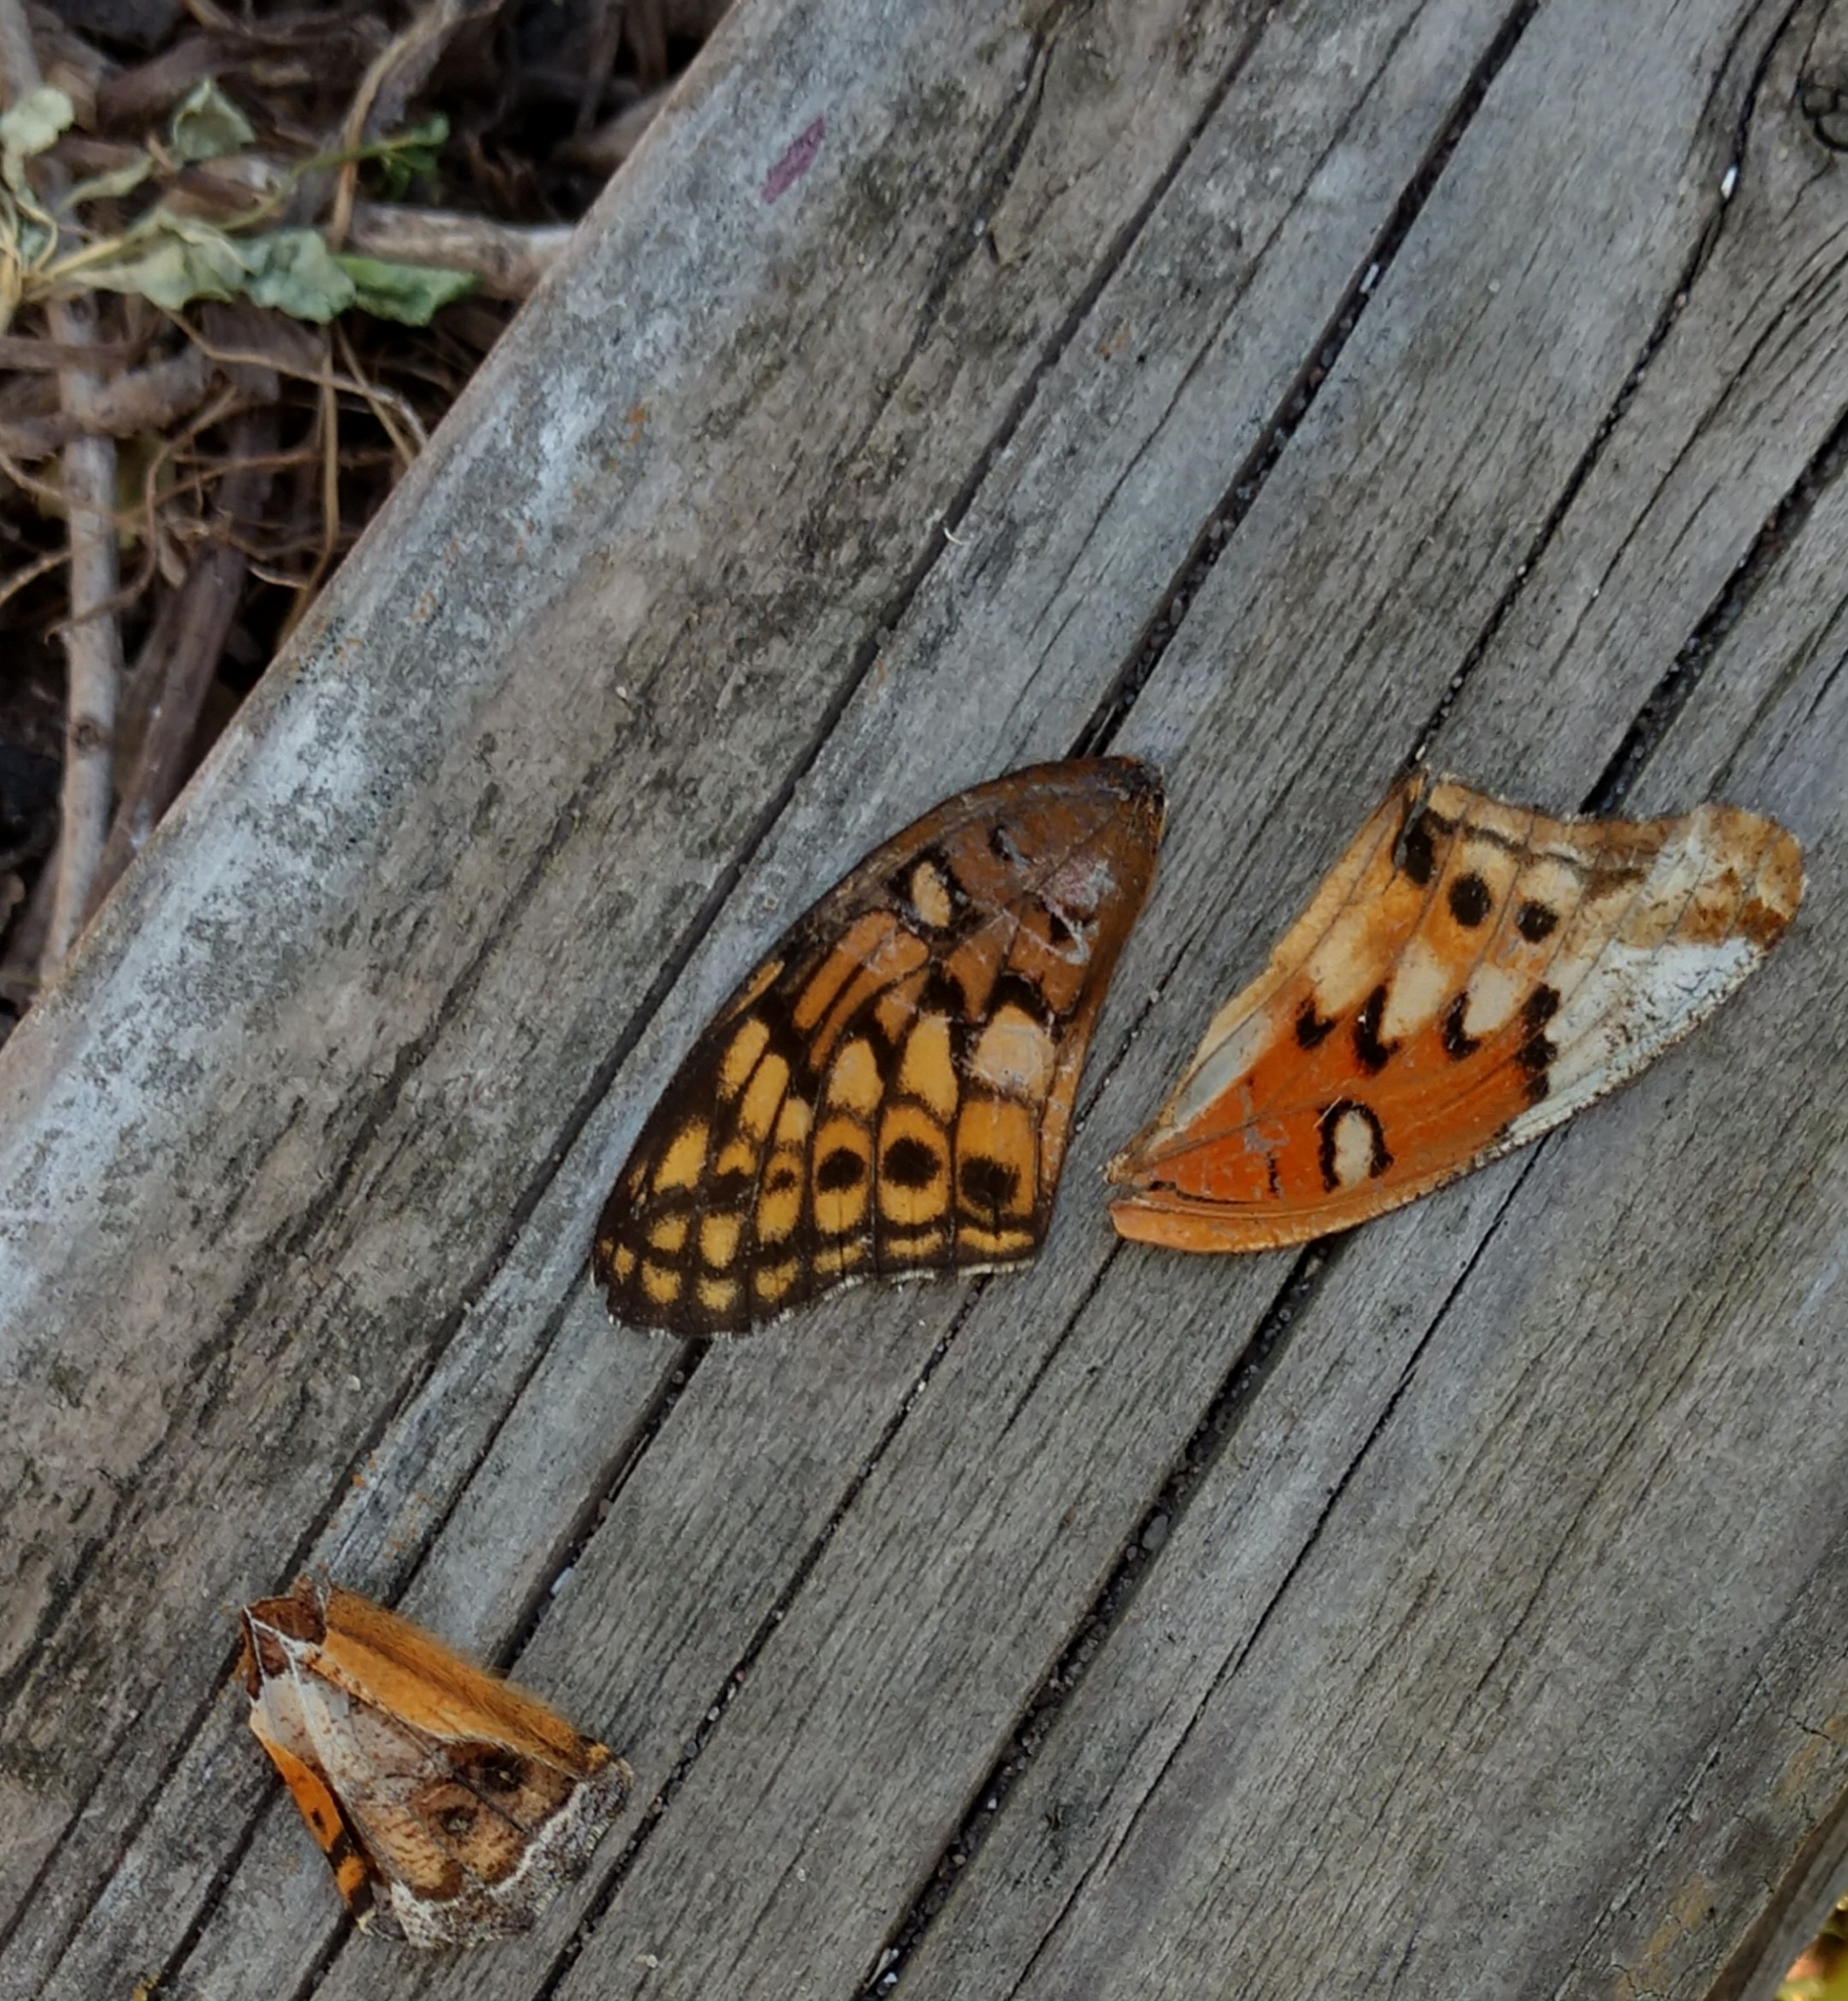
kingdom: Animalia
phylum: Arthropoda
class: Insecta
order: Lepidoptera
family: Nymphalidae
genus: Euptoieta
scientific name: Euptoieta claudia
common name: Variegated fritillary
